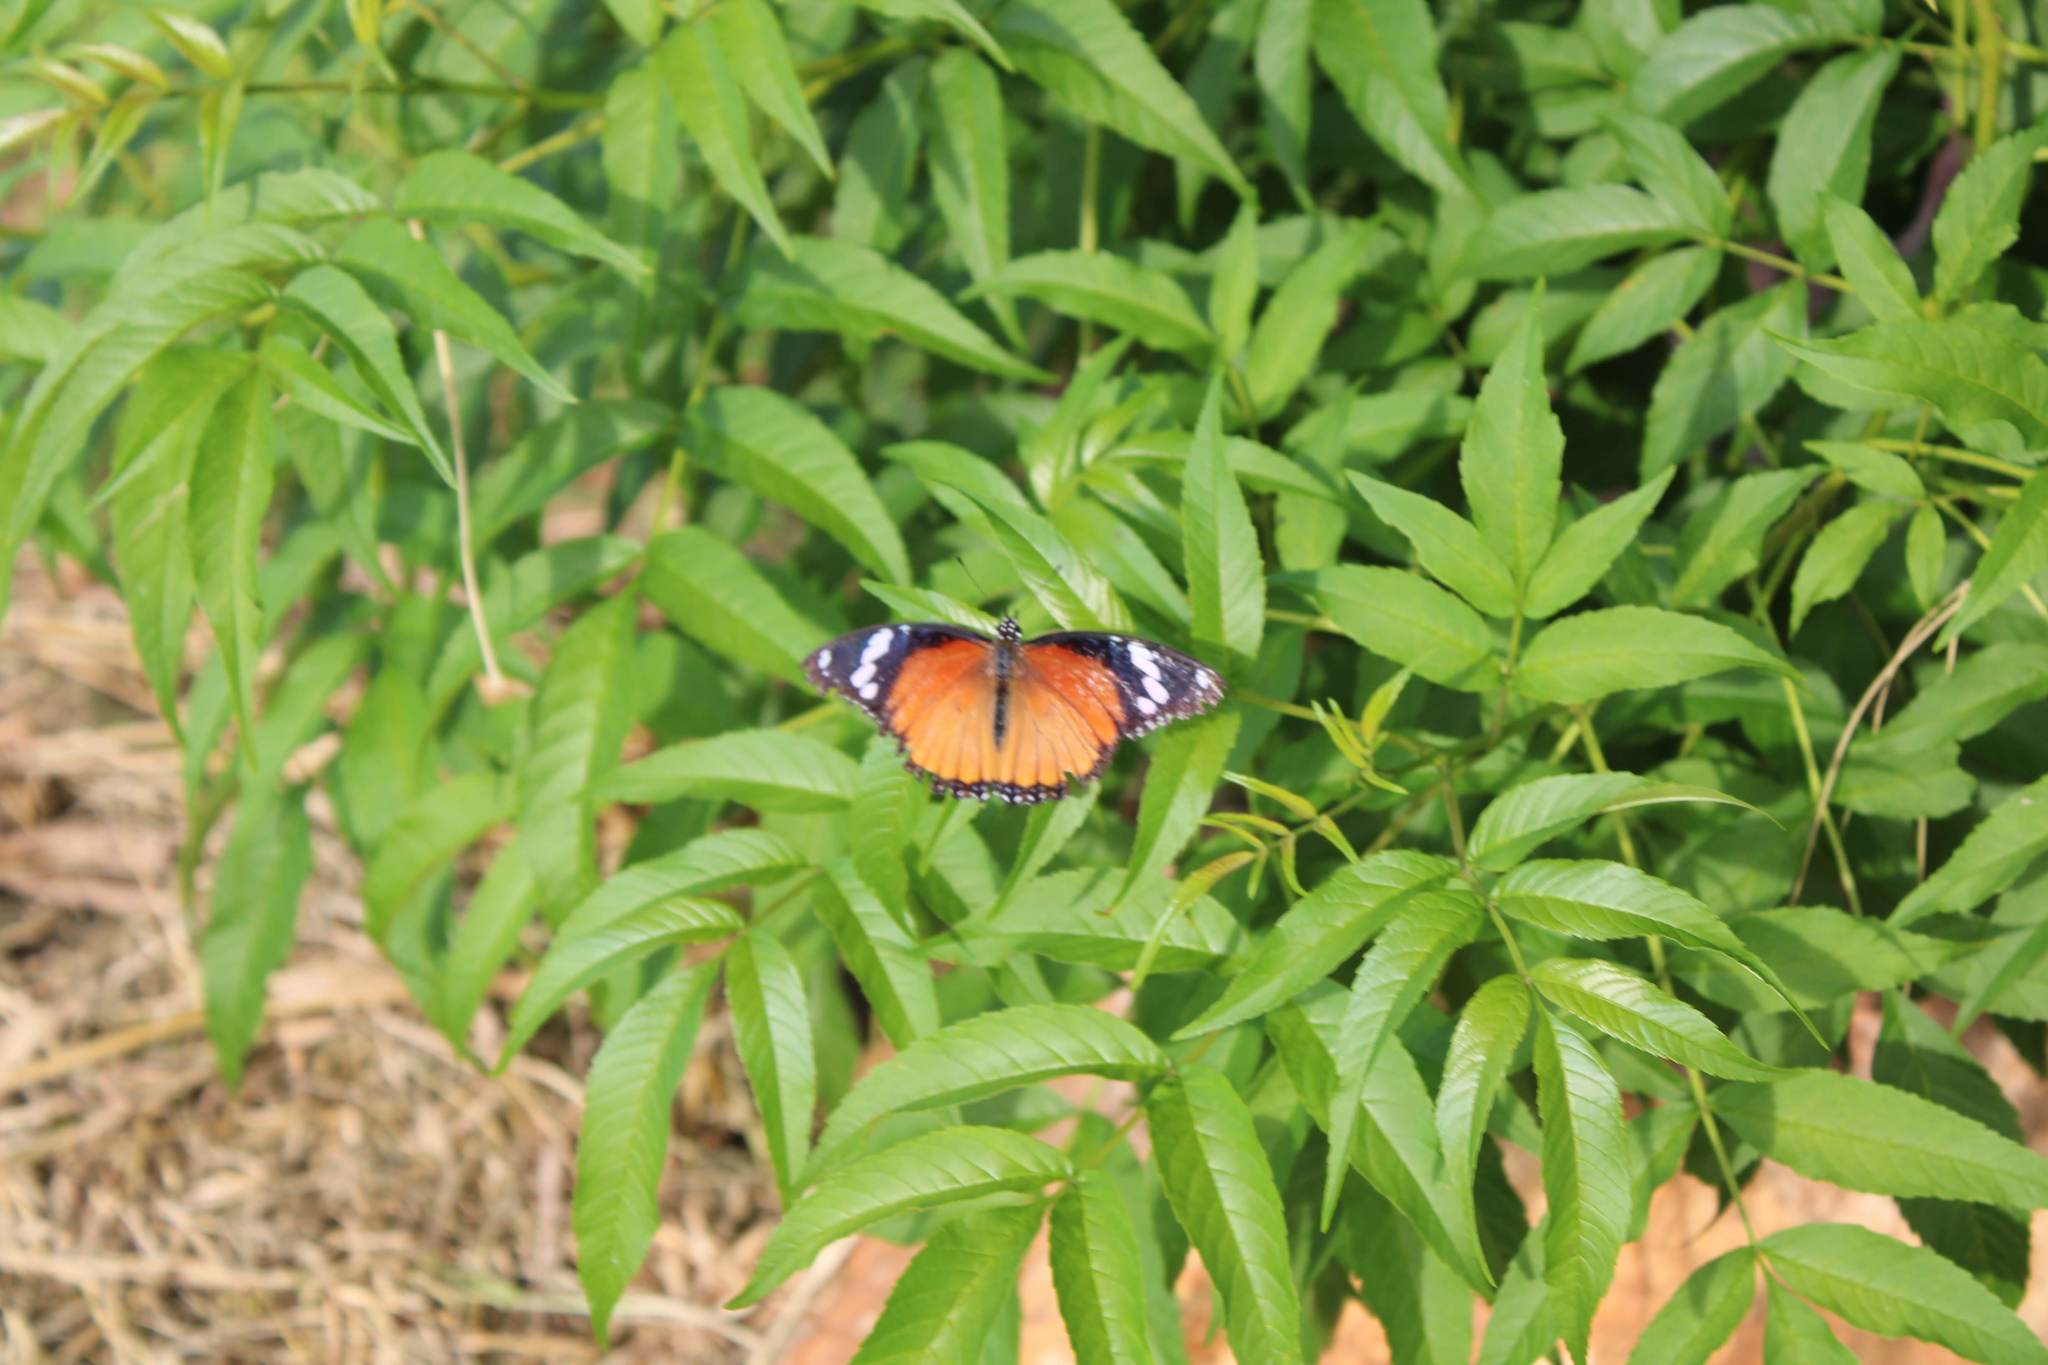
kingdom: Animalia
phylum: Arthropoda
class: Insecta
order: Lepidoptera
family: Nymphalidae
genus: Hypolimnas
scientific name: Hypolimnas misippus
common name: False plain tiger
